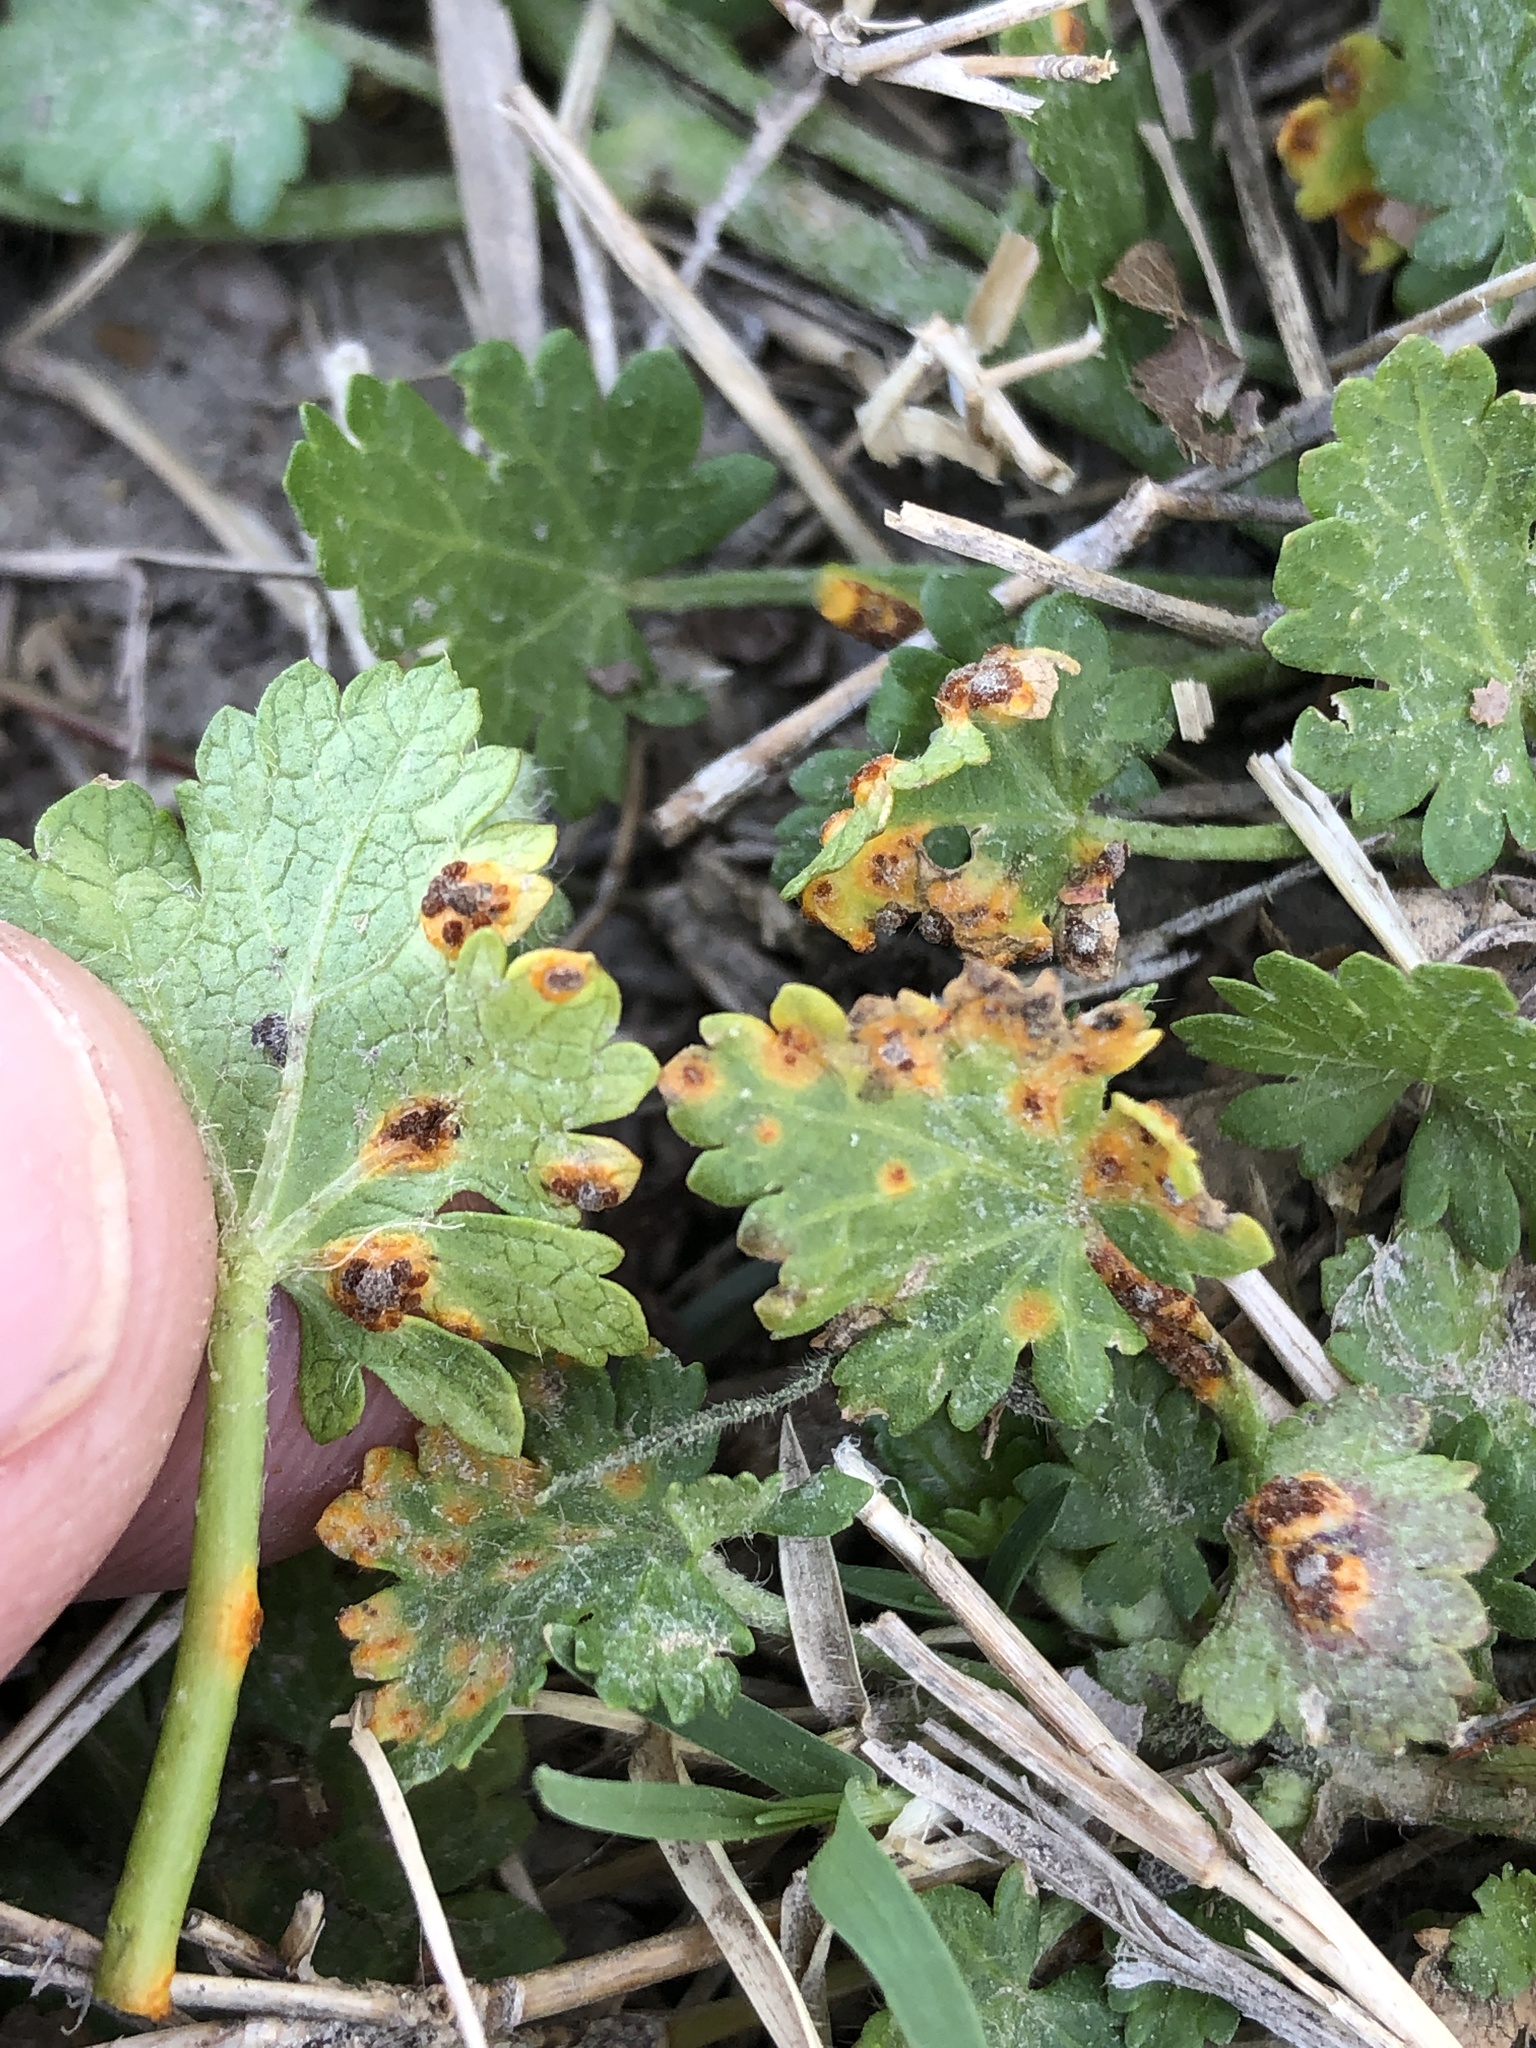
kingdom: Fungi
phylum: Basidiomycota
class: Pucciniomycetes
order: Pucciniales
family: Pucciniaceae
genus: Puccinia
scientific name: Puccinia modiolae
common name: Rust of bristlemallow
